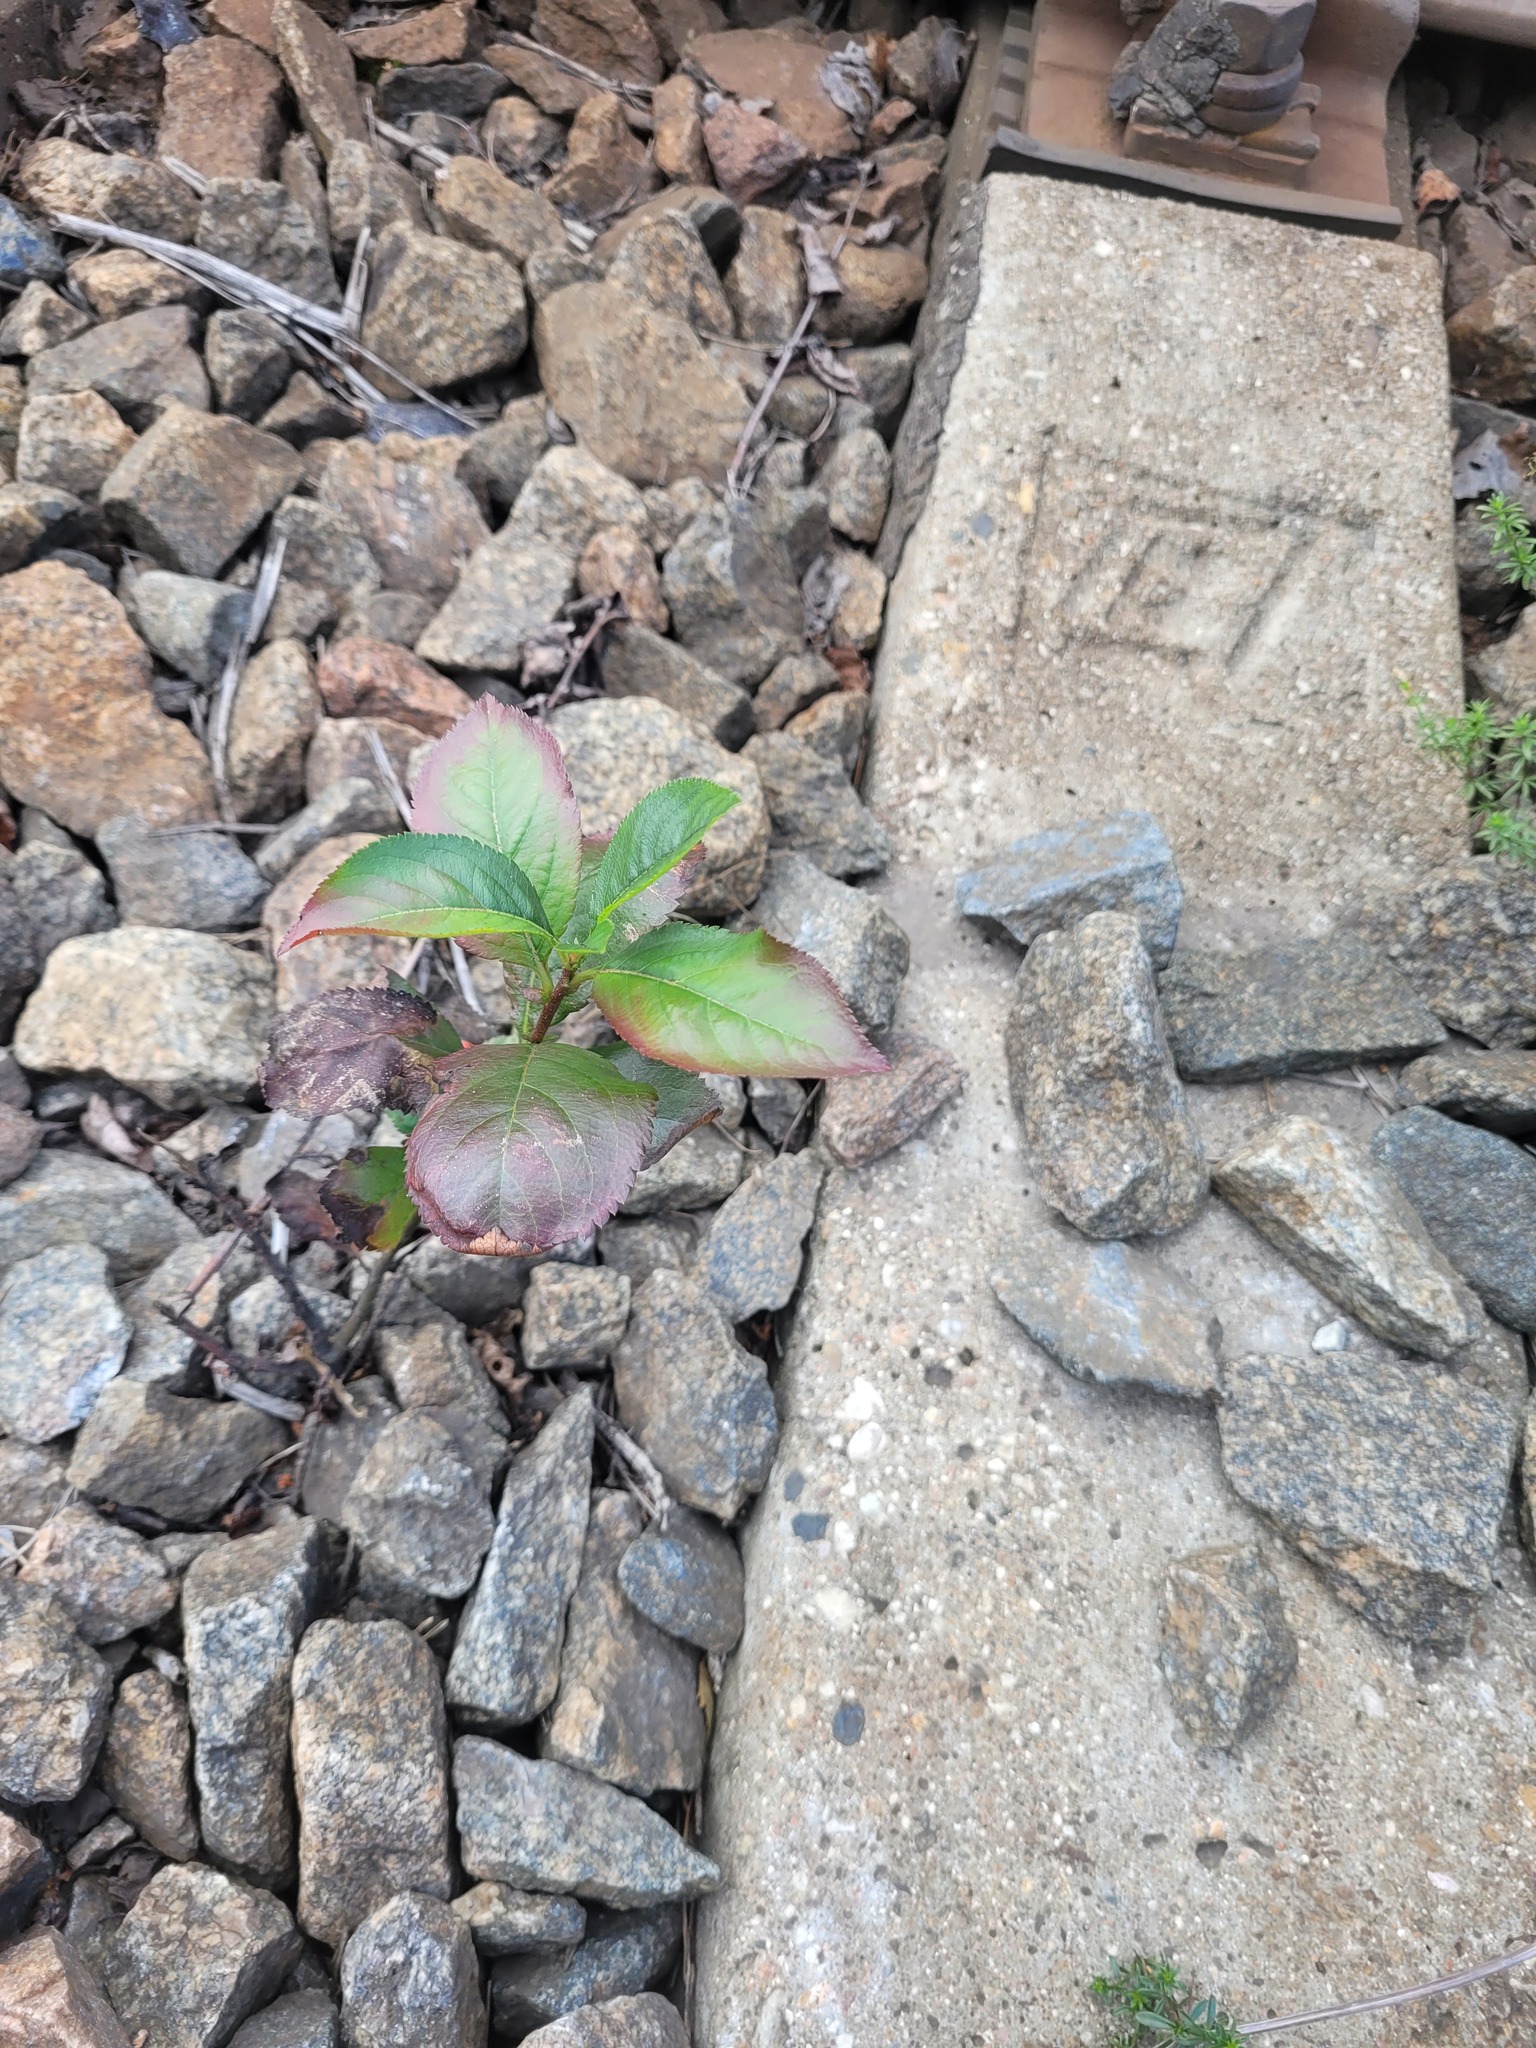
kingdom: Plantae
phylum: Tracheophyta
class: Magnoliopsida
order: Rosales
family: Rosaceae
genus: Sorbaronia
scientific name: Sorbaronia arsenii
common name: Arsène's mountain-ash
